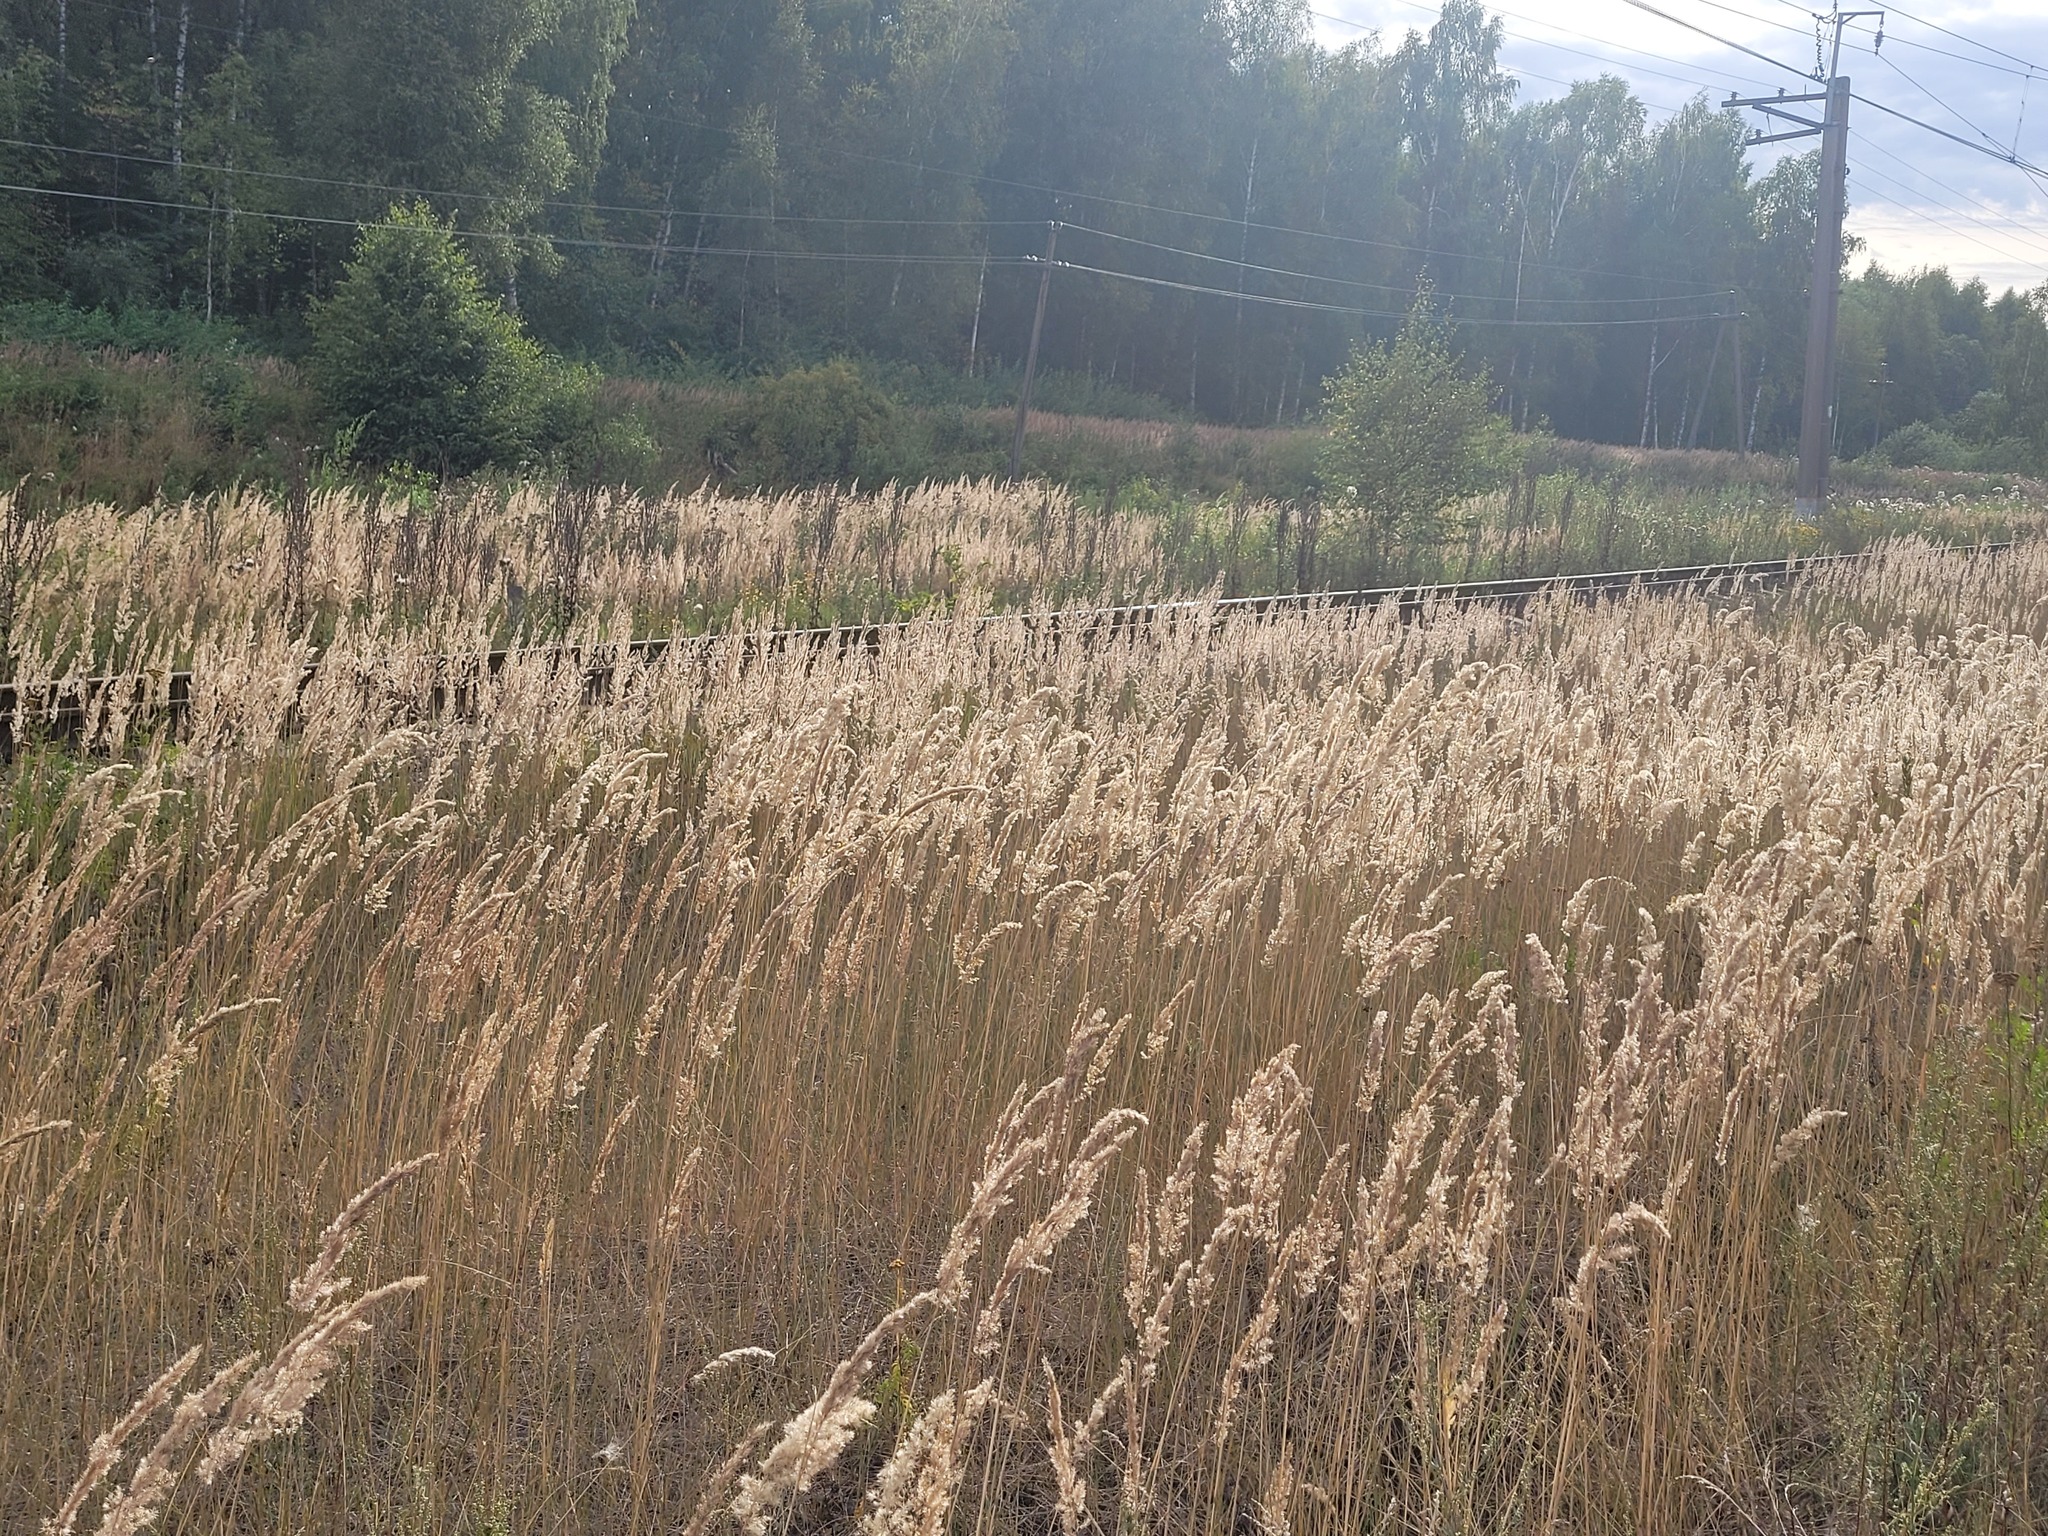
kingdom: Plantae
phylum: Tracheophyta
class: Liliopsida
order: Poales
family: Poaceae
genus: Calamagrostis
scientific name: Calamagrostis epigejos
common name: Wood small-reed
